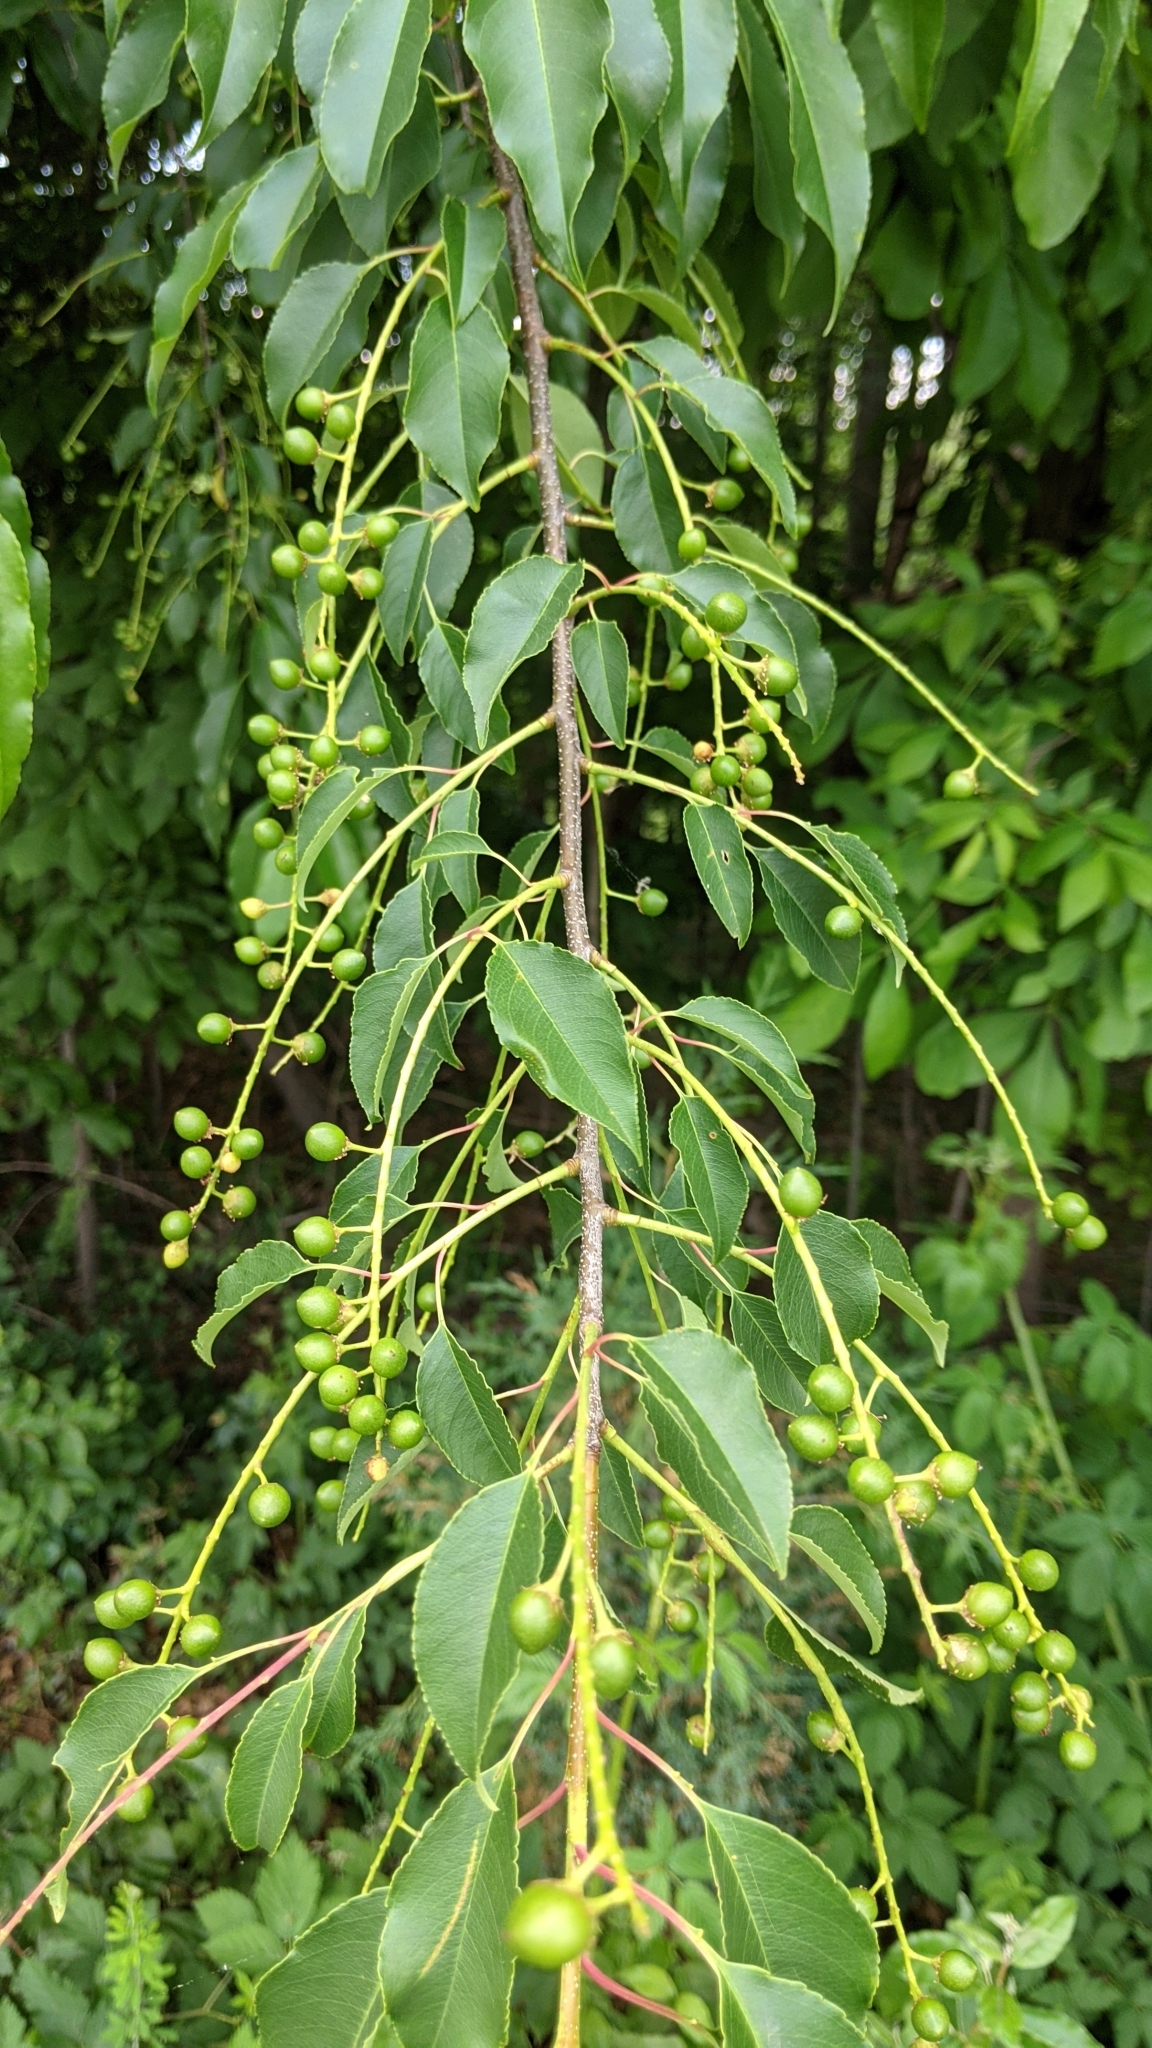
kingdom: Plantae
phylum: Tracheophyta
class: Magnoliopsida
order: Rosales
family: Rosaceae
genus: Prunus
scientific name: Prunus serotina
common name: Black cherry
